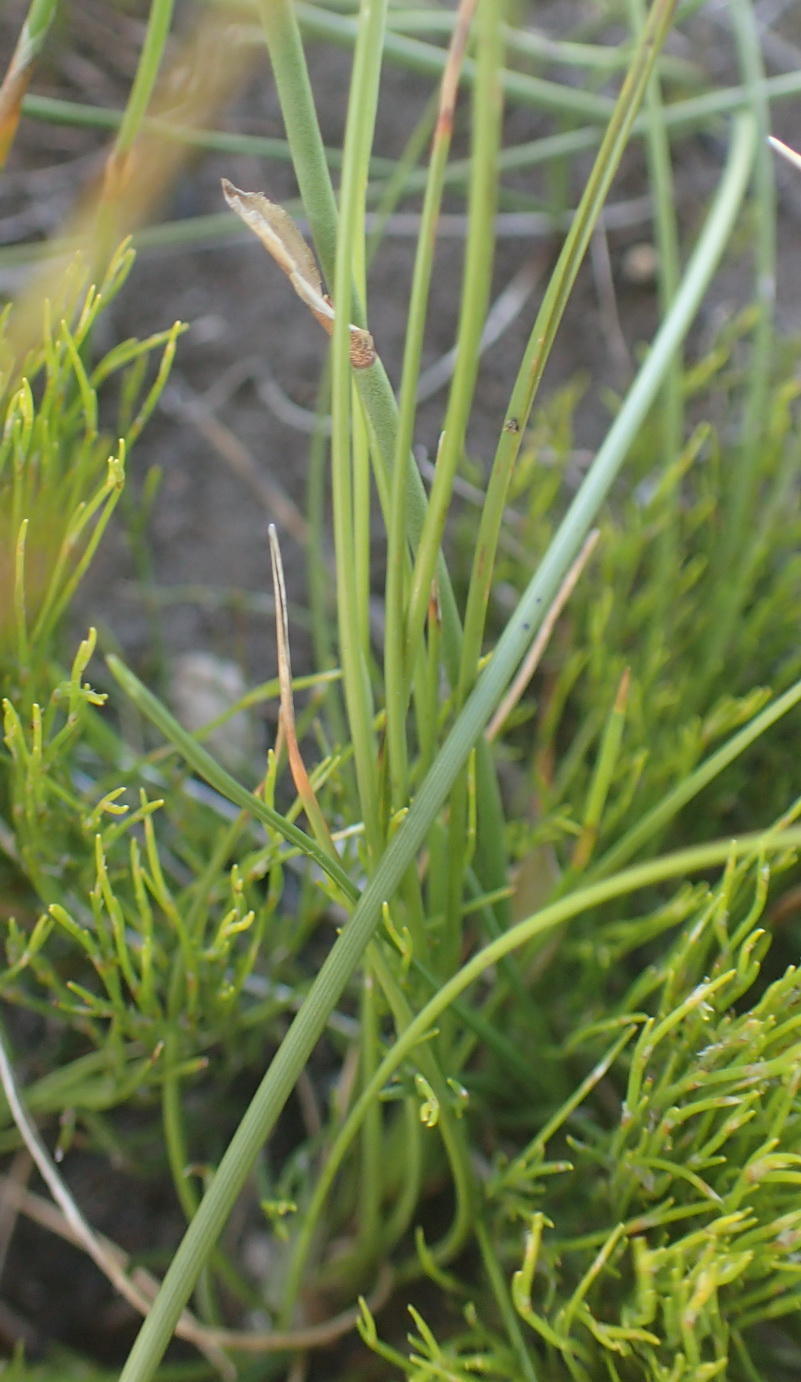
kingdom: Plantae
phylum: Tracheophyta
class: Liliopsida
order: Asparagales
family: Iridaceae
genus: Geissorhiza
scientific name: Geissorhiza fourcadei
